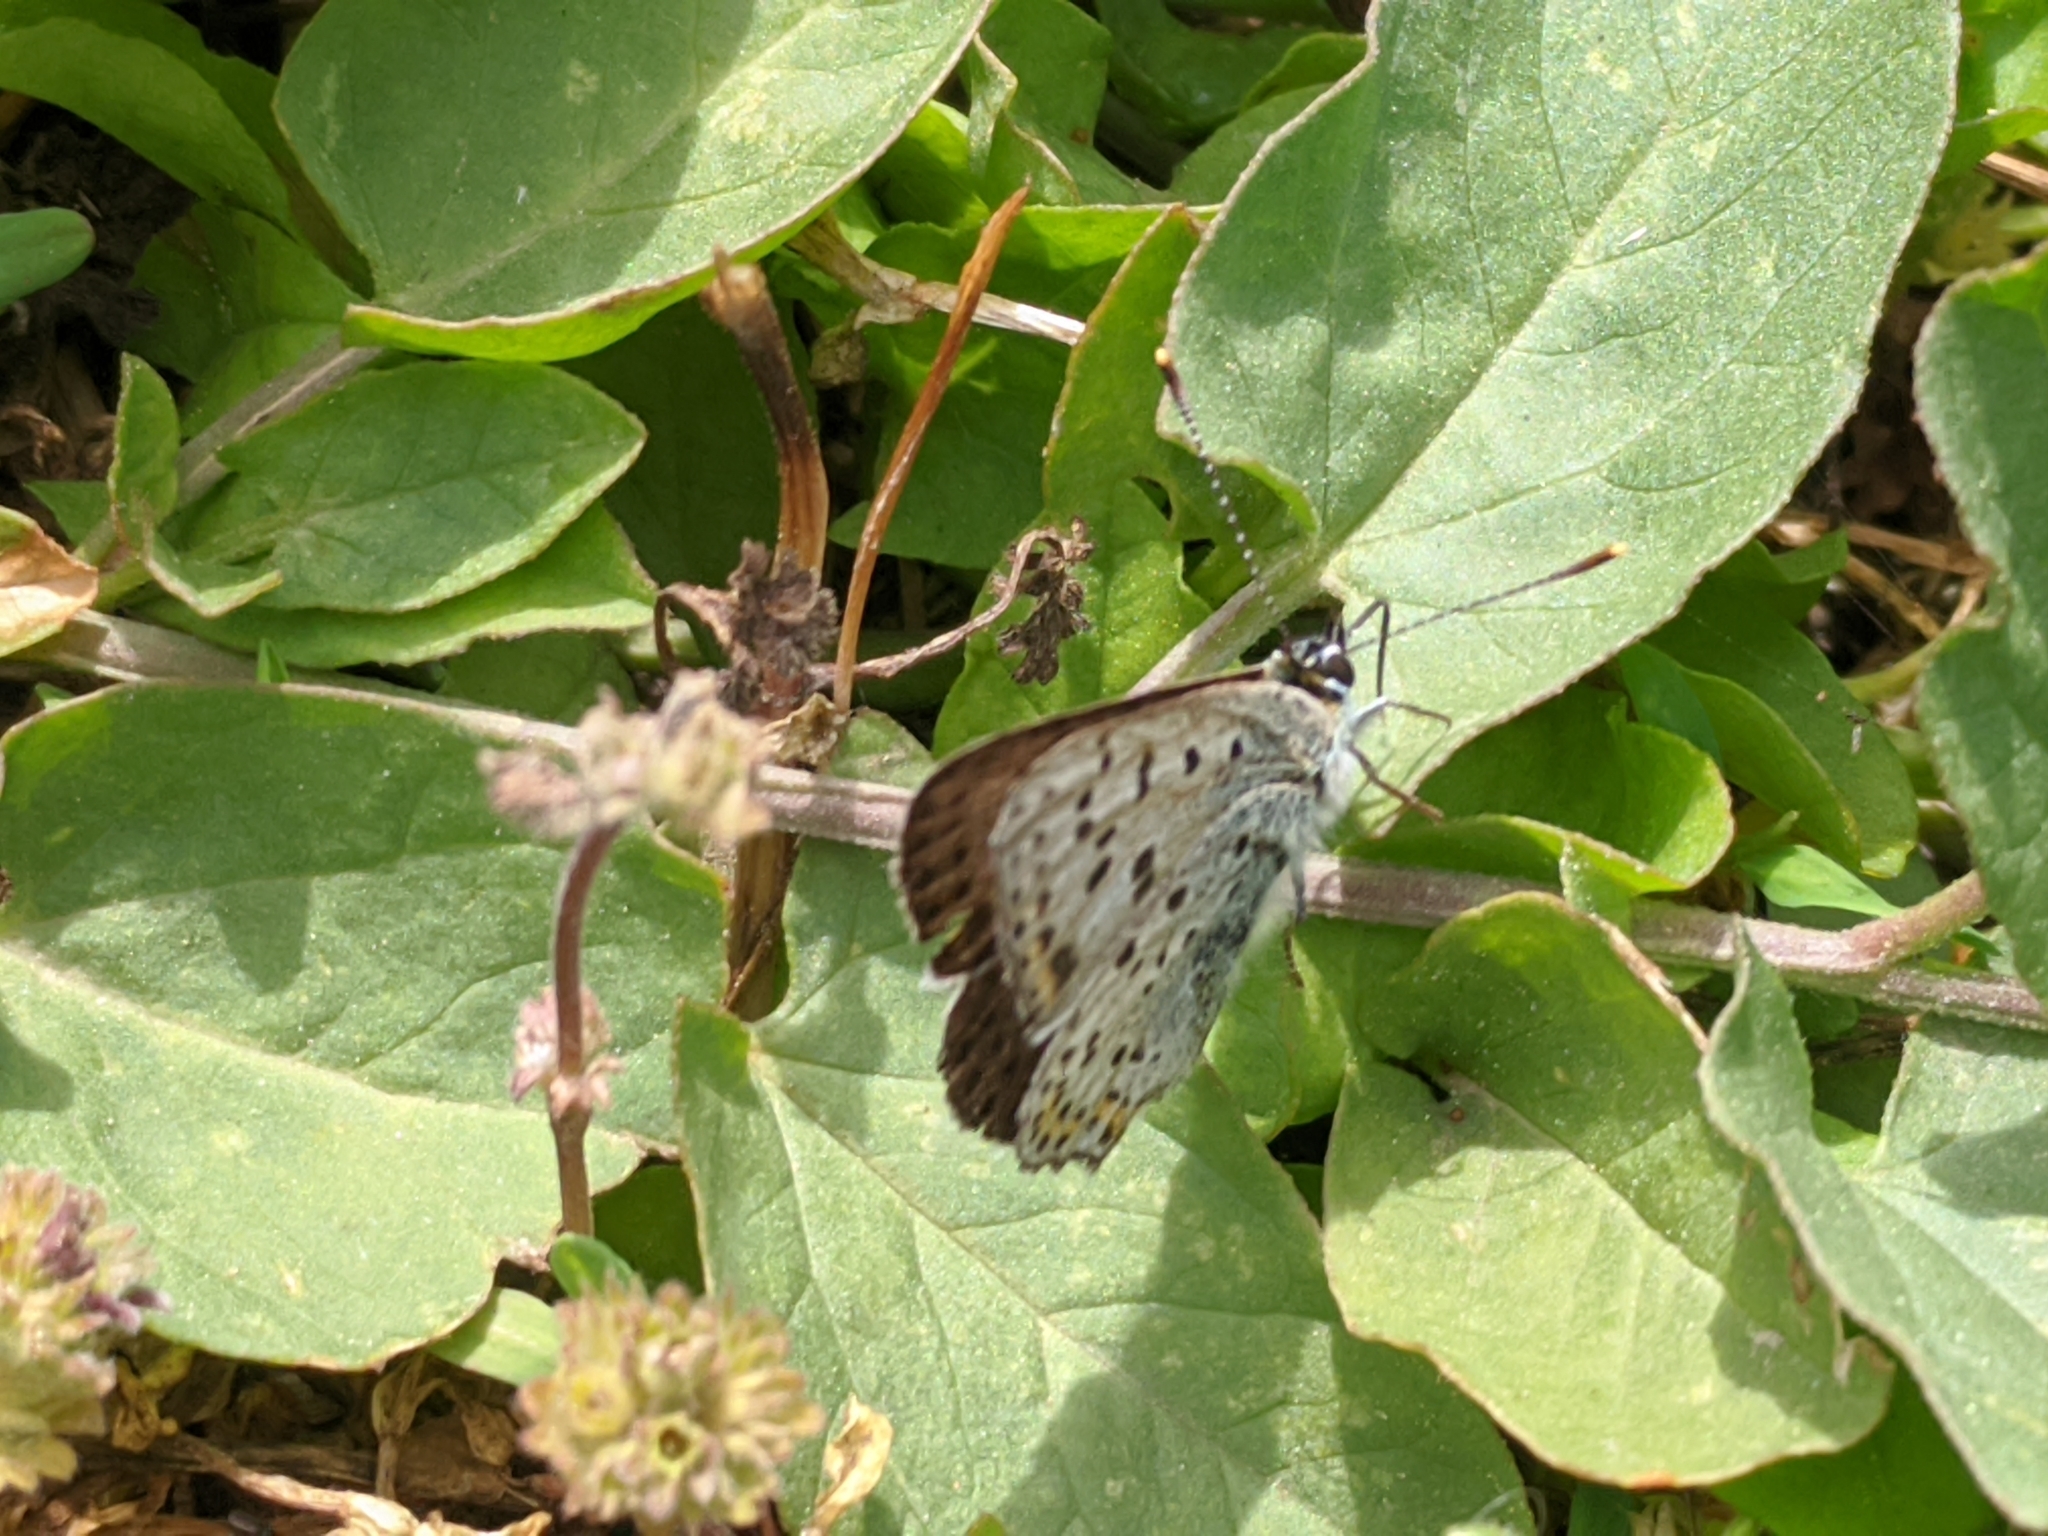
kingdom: Animalia
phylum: Arthropoda
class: Insecta
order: Lepidoptera
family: Lycaenidae
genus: Loweia
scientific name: Loweia tityrus
